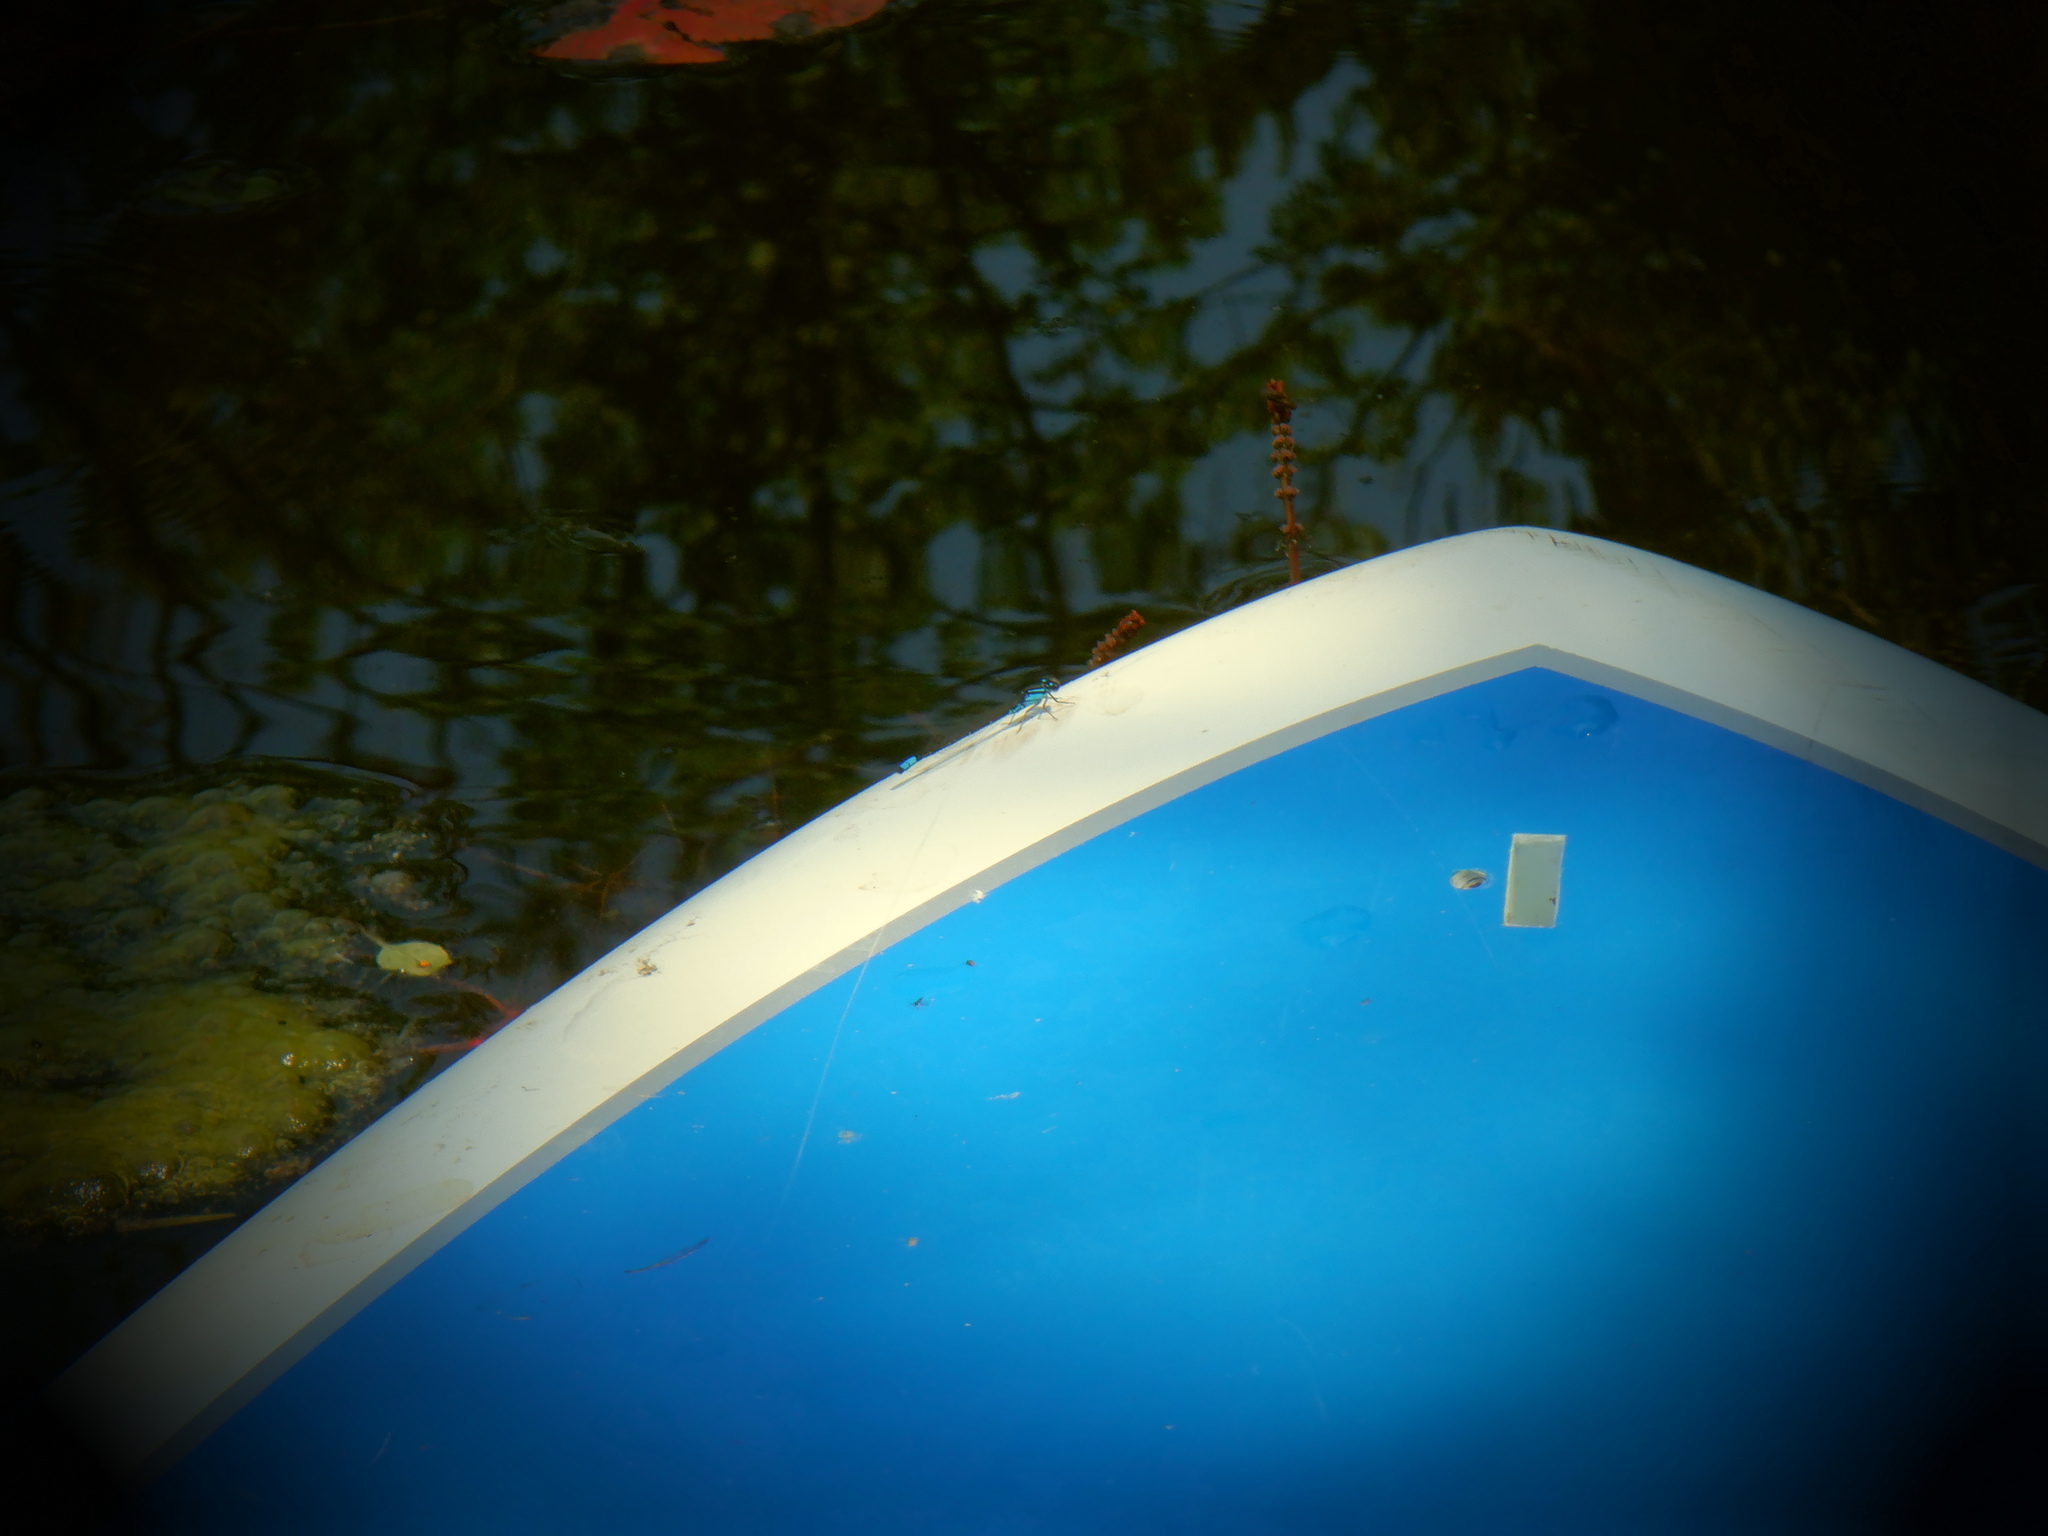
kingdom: Animalia
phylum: Arthropoda
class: Insecta
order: Odonata
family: Coenagrionidae
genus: Enallagma
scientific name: Enallagma geminatum
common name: Skimming bluet
